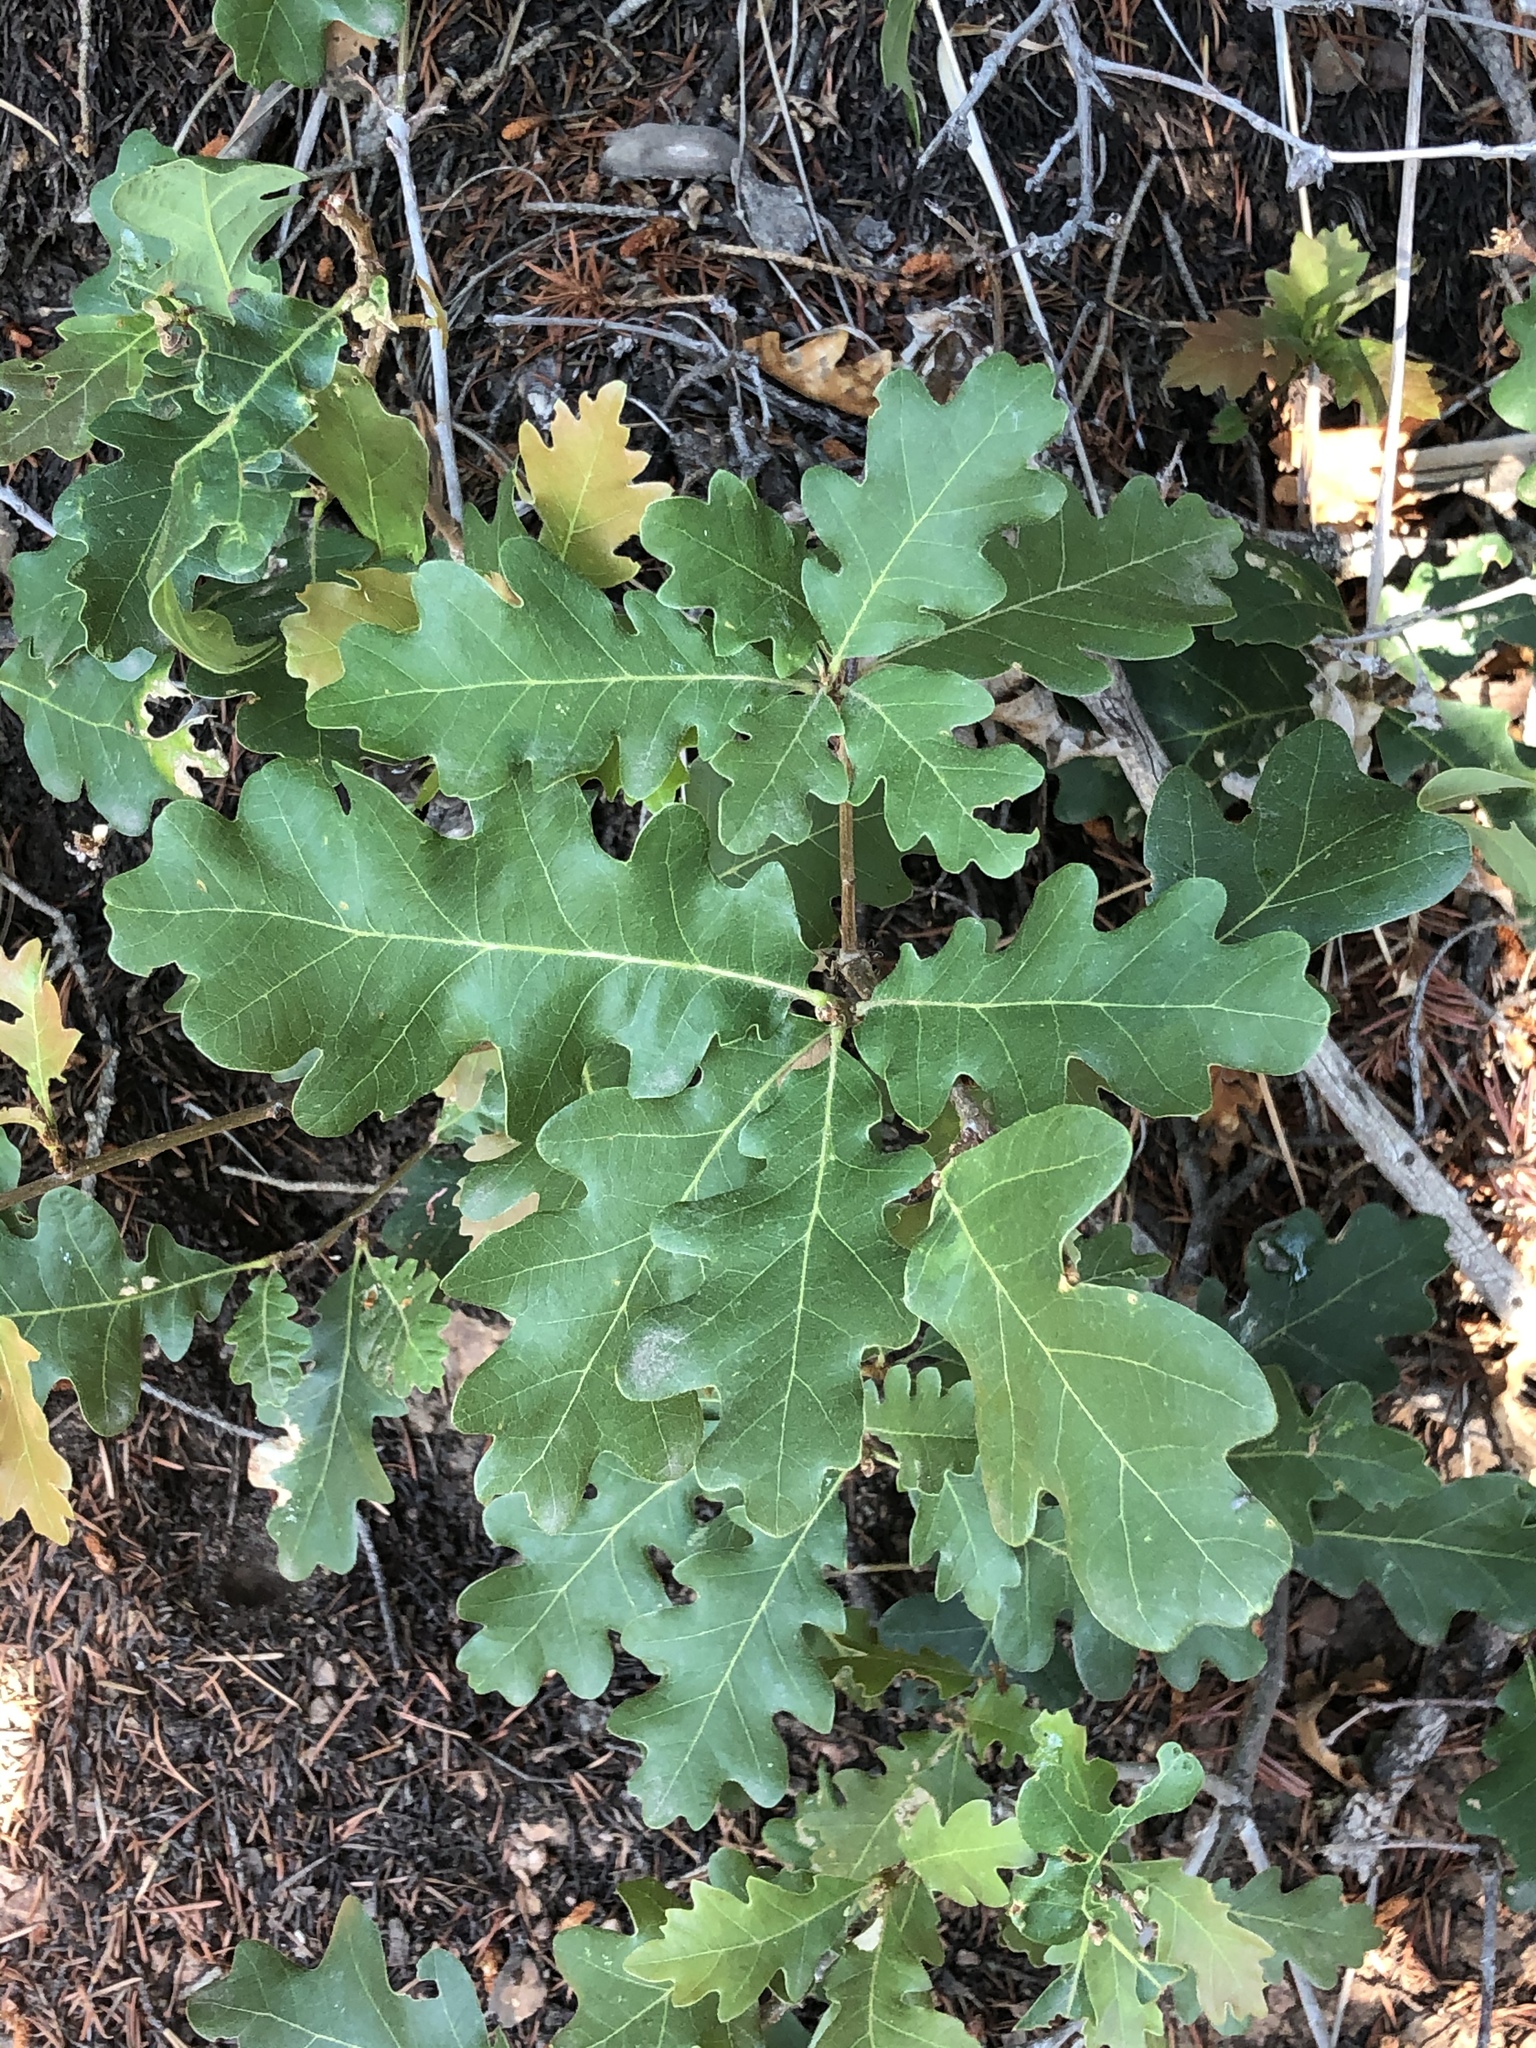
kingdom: Plantae
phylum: Tracheophyta
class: Magnoliopsida
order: Fagales
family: Fagaceae
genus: Quercus
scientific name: Quercus gambelii
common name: Gambel oak
